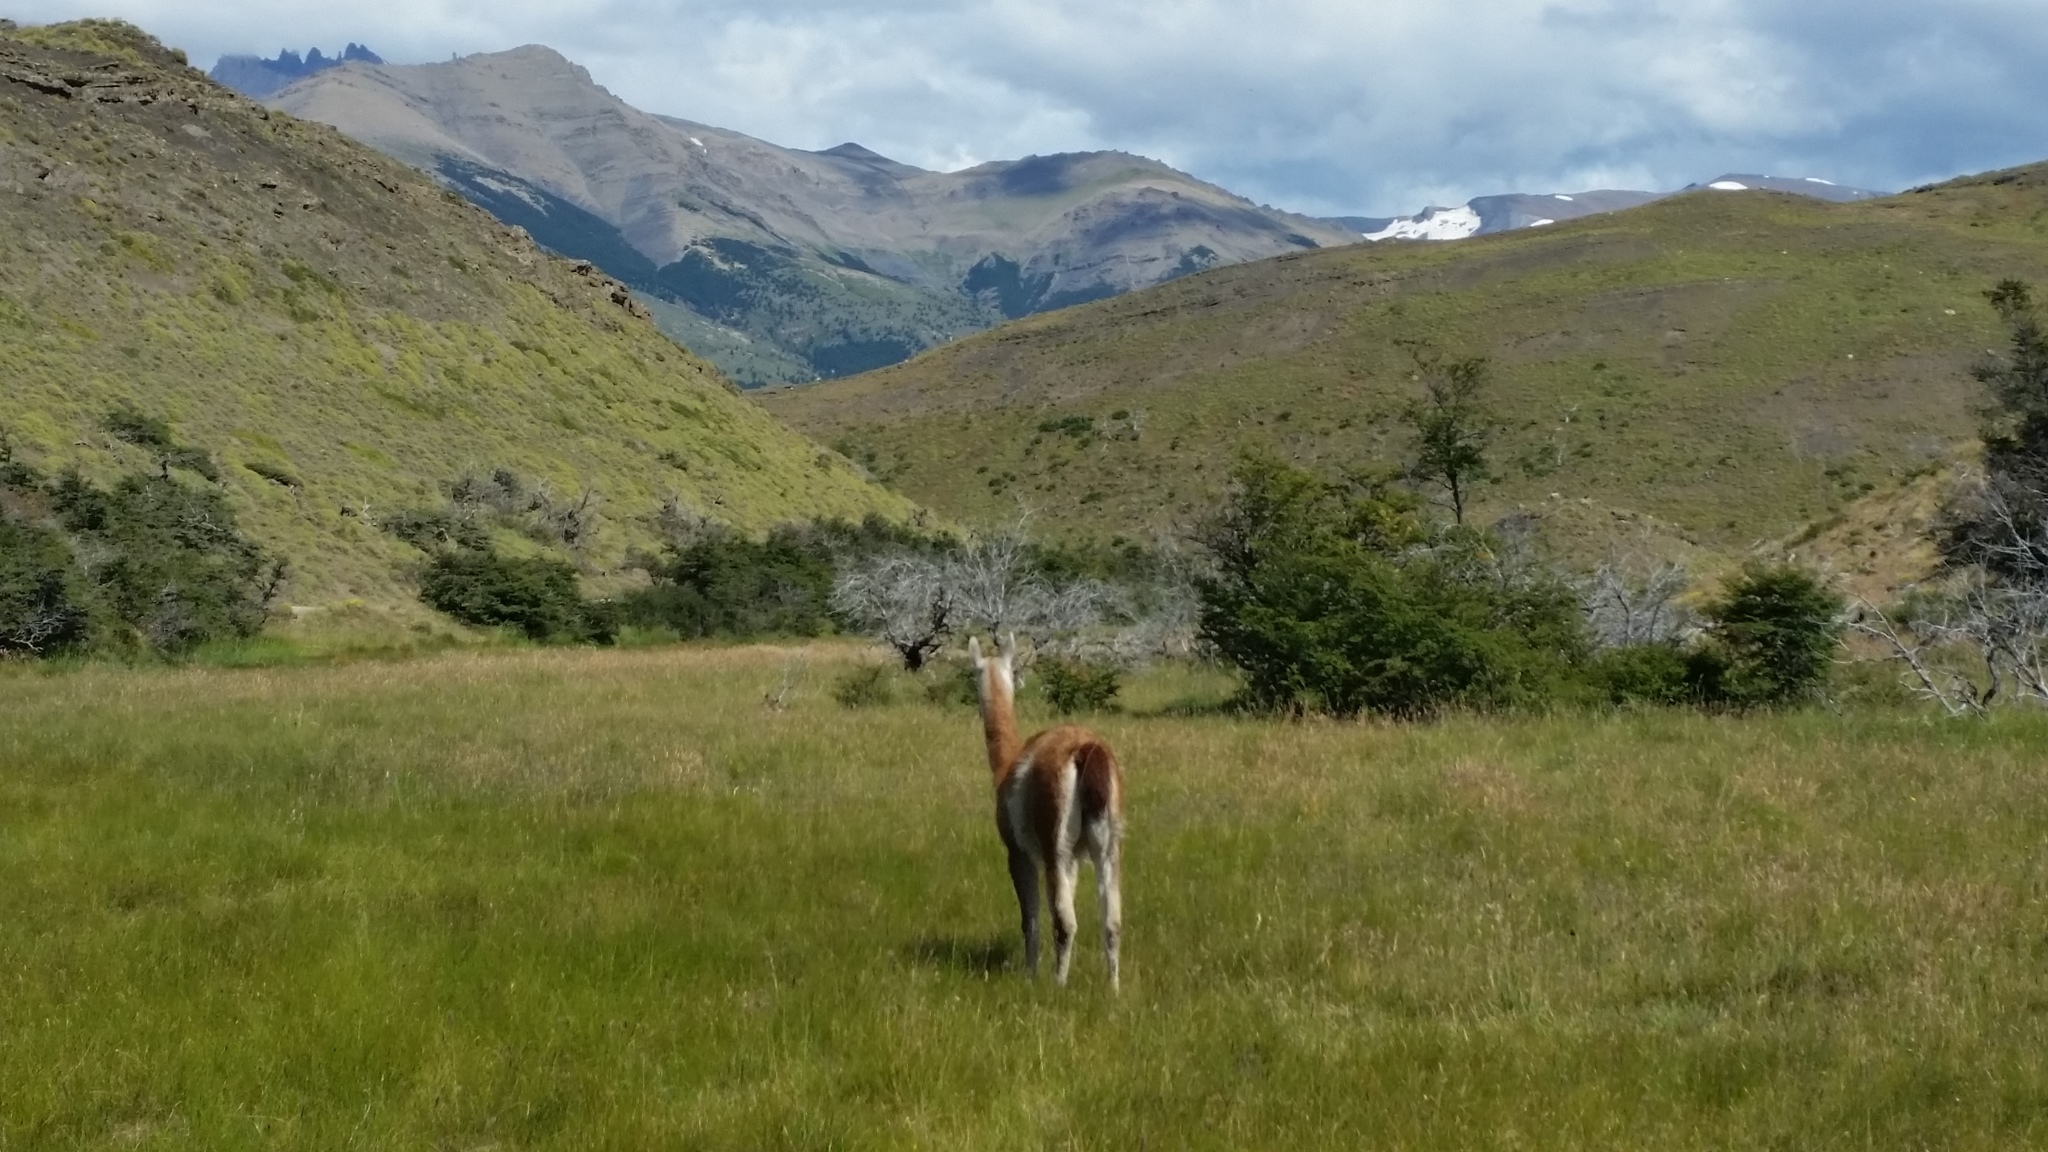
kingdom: Animalia
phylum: Chordata
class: Mammalia
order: Artiodactyla
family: Camelidae
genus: Lama
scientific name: Lama glama
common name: Llama
